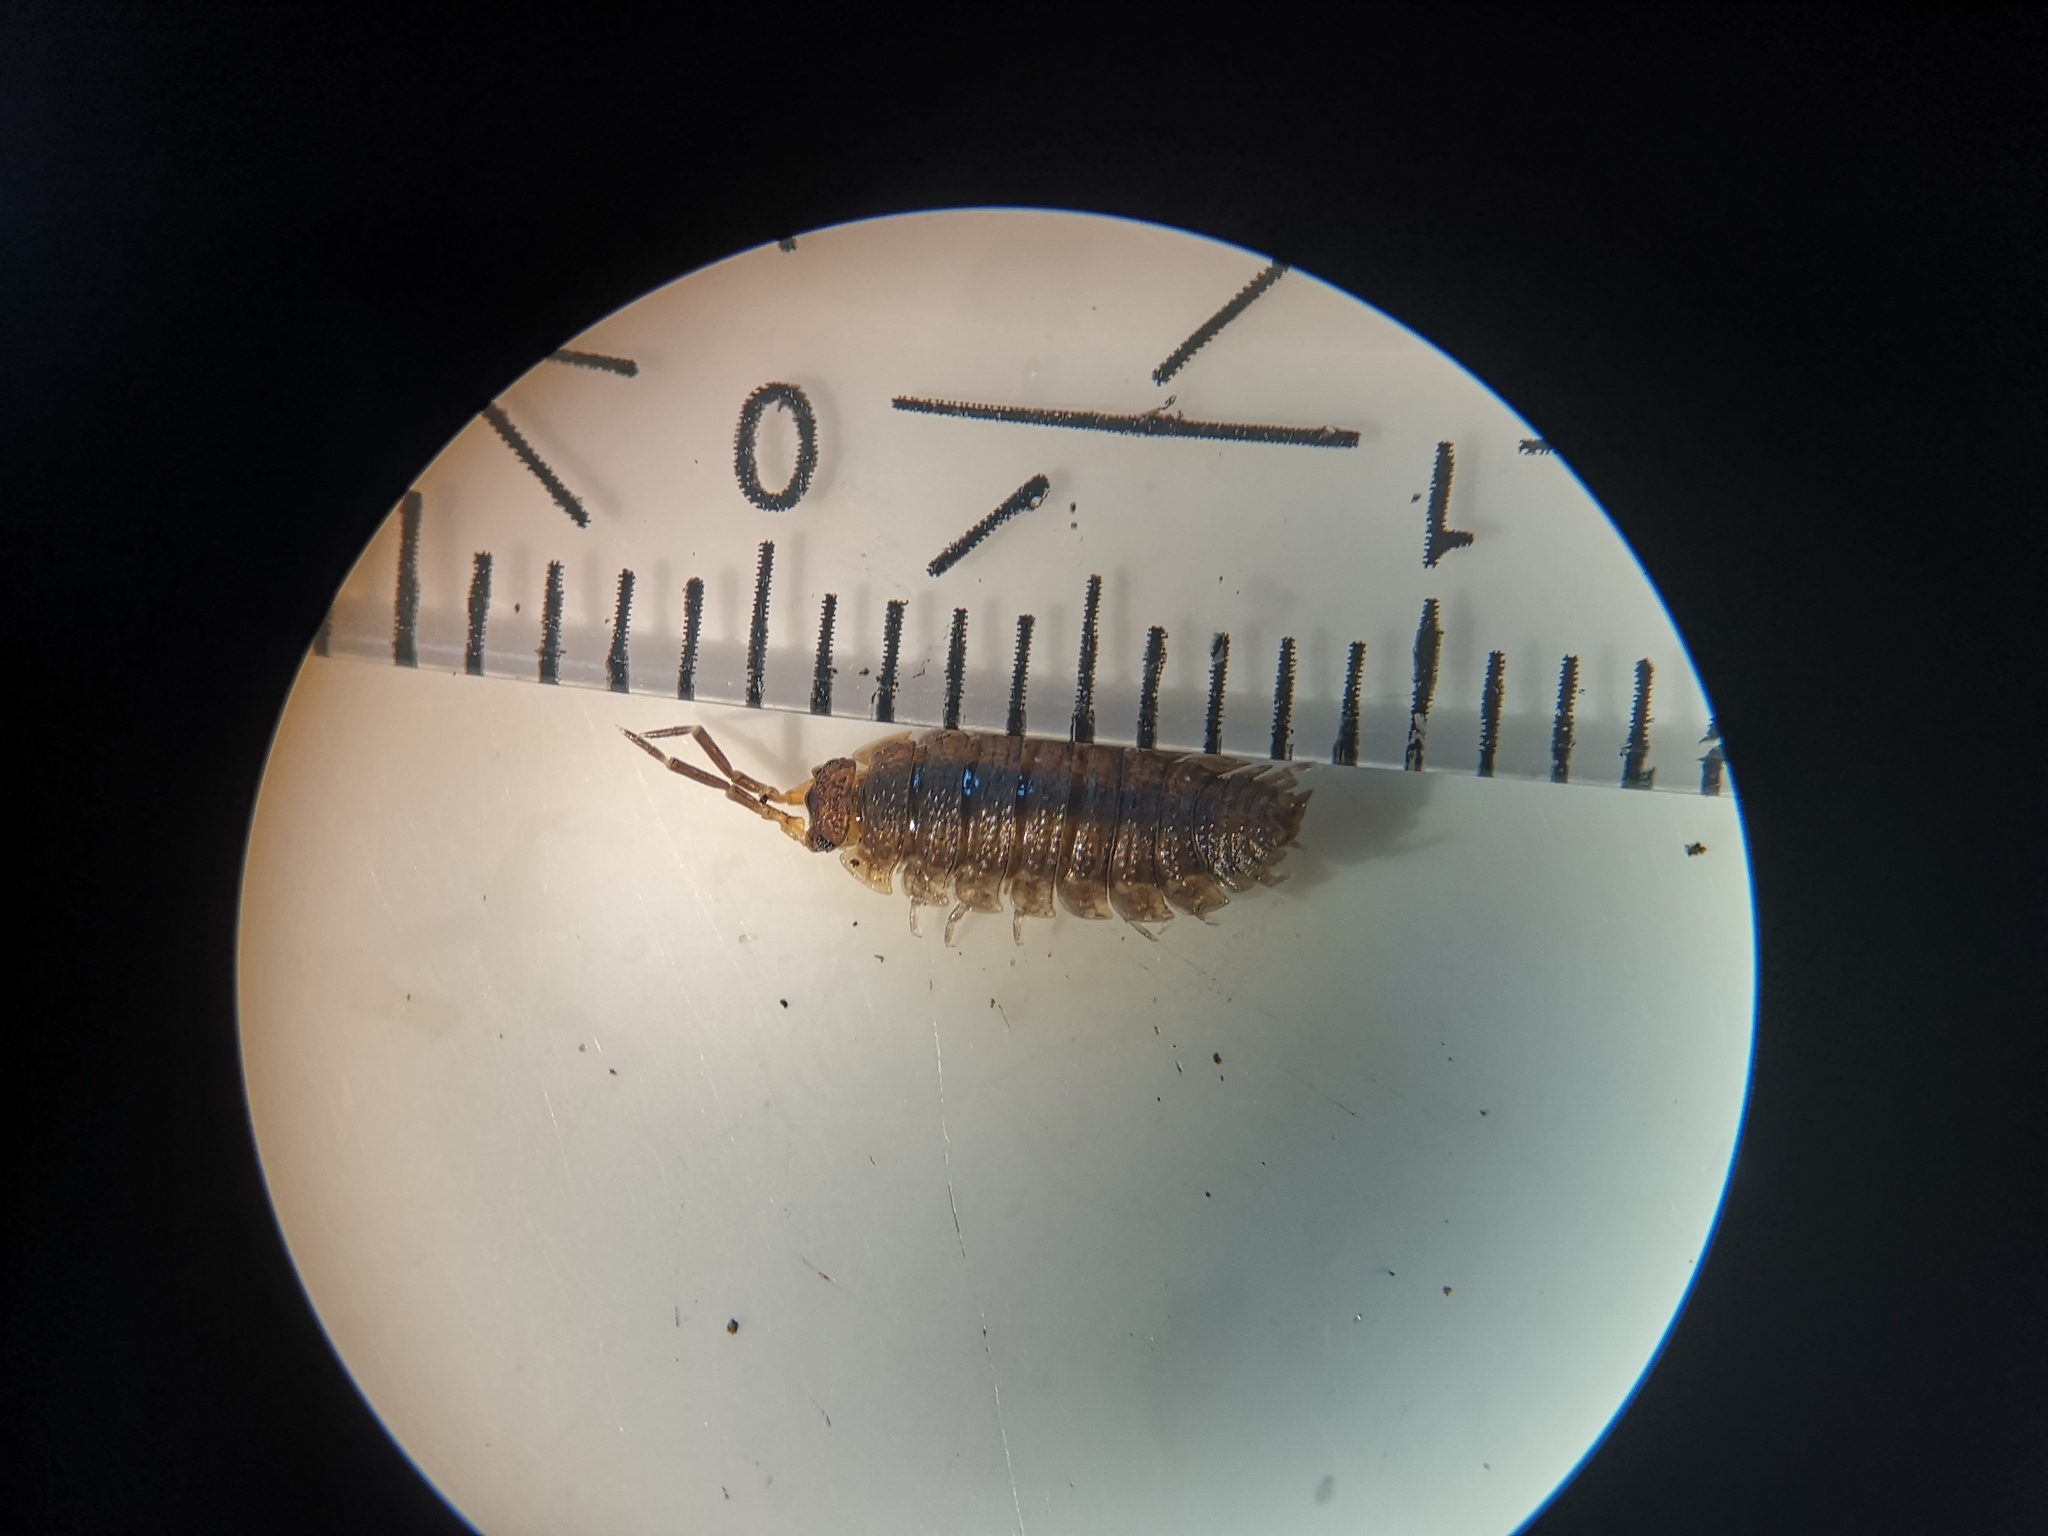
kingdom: Animalia
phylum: Arthropoda
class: Malacostraca
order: Isopoda
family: Porcellionidae
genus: Porcellio
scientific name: Porcellio scaber
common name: Common rough woodlouse
